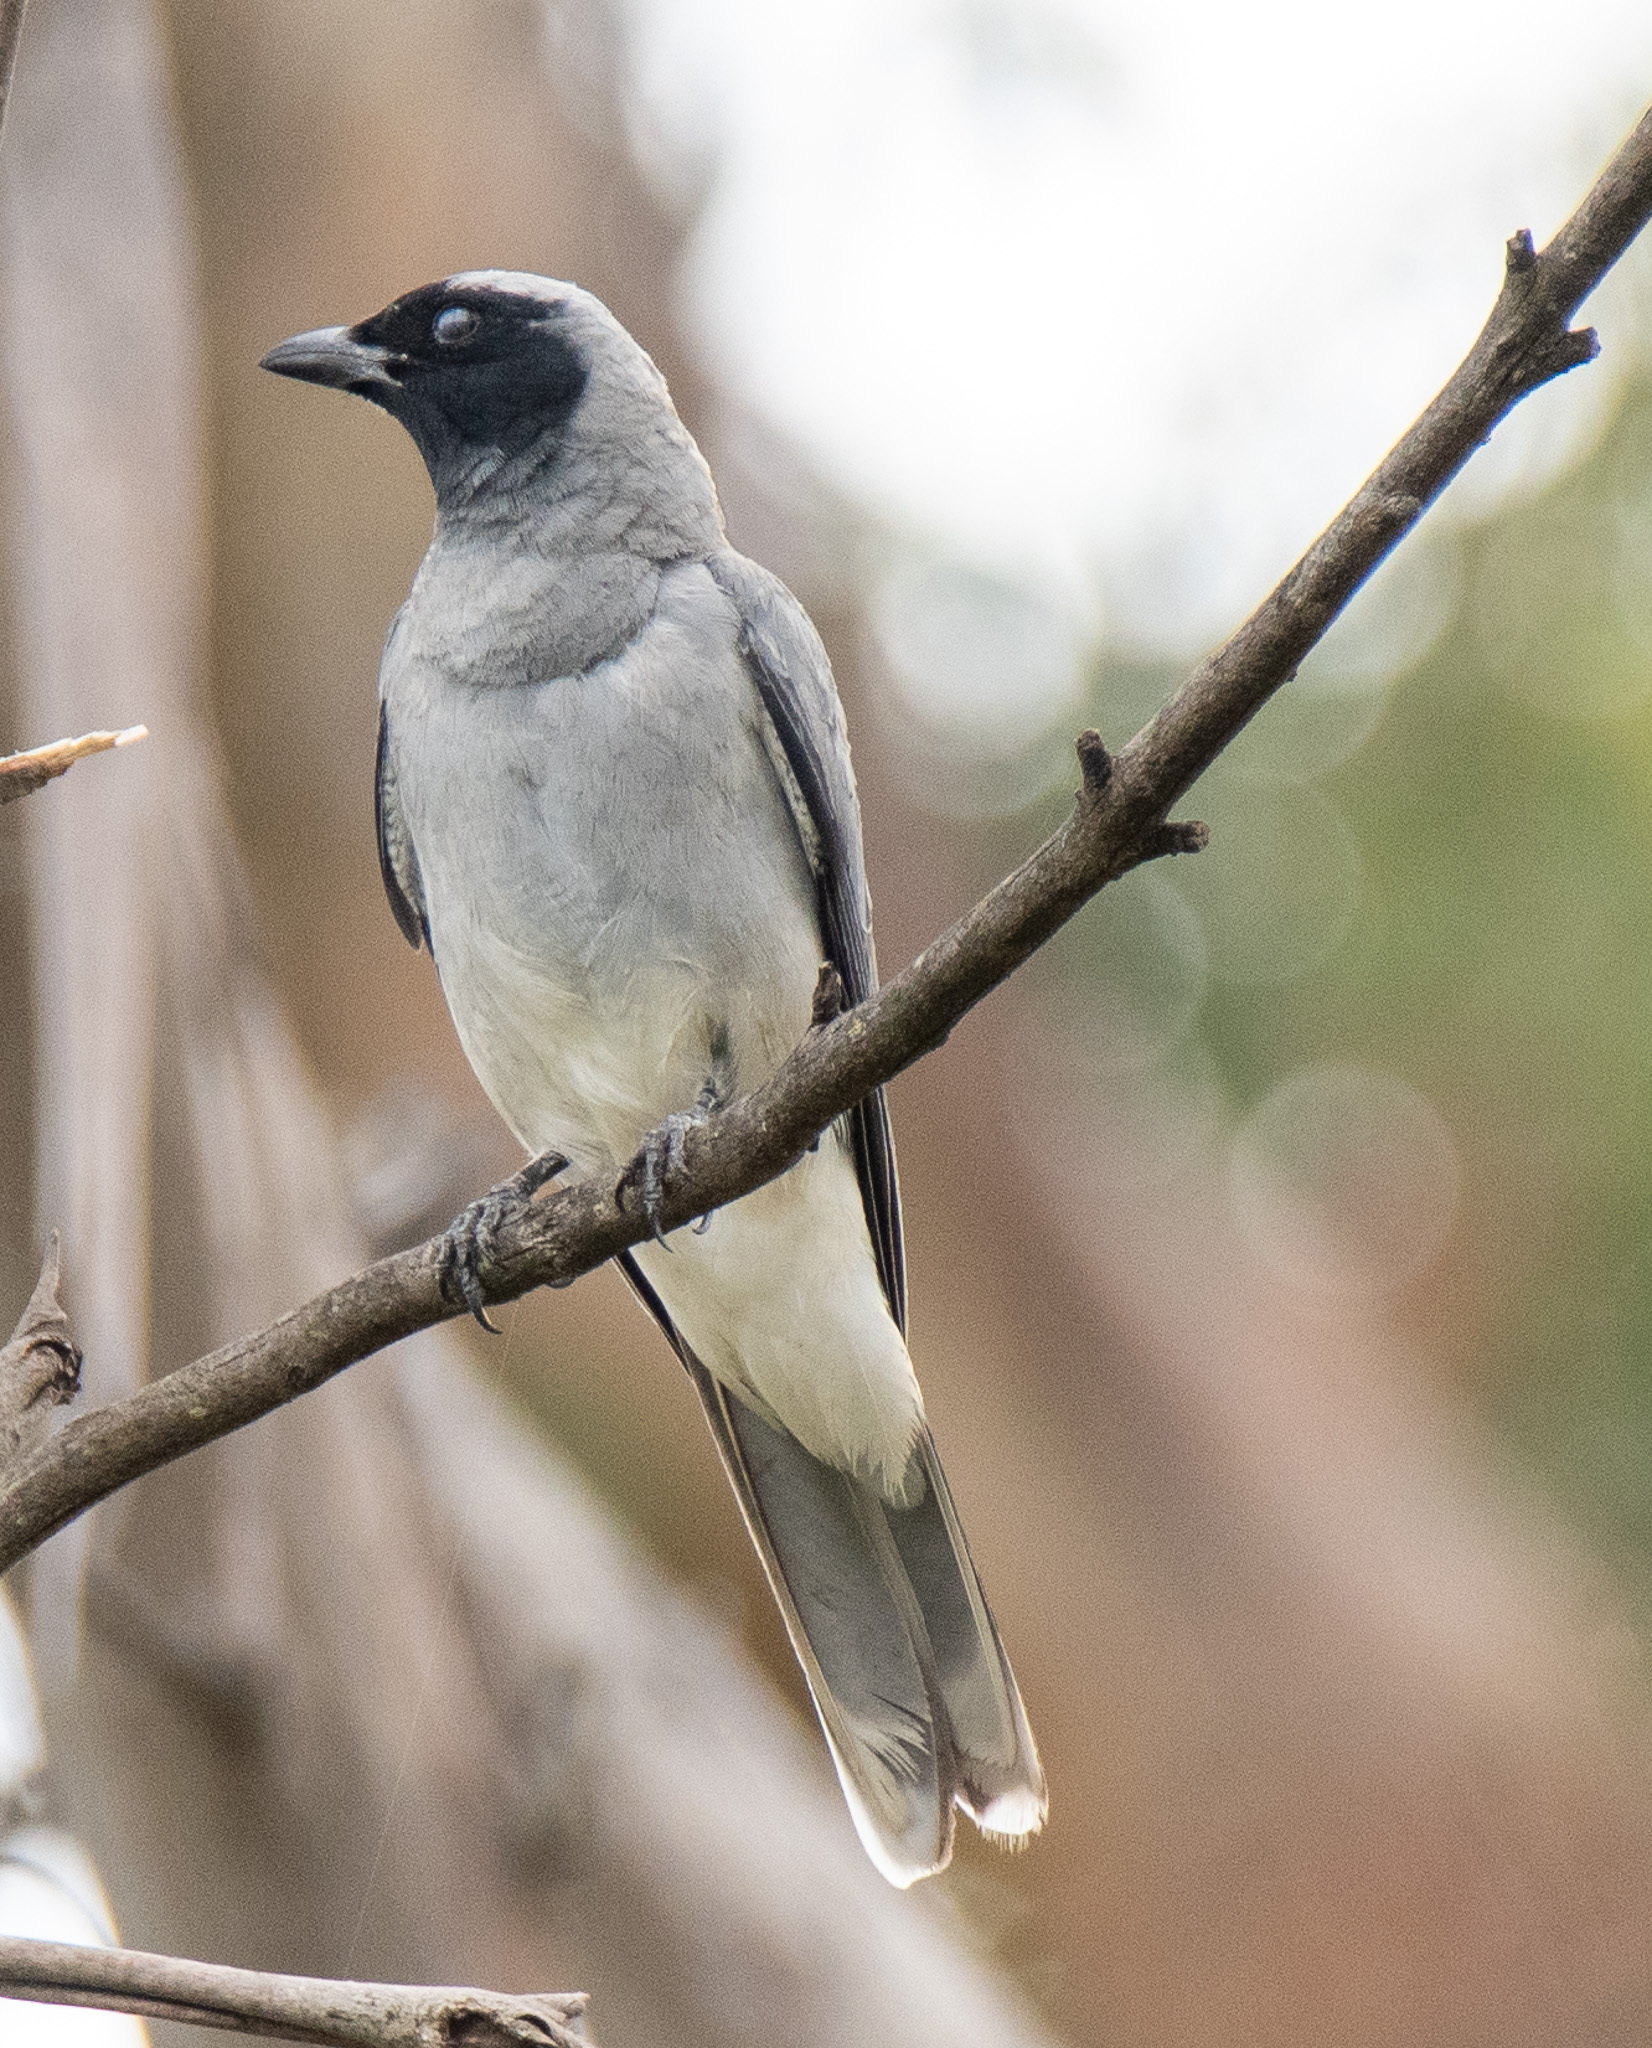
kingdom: Animalia
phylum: Chordata
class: Aves
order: Passeriformes
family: Campephagidae
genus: Coracina
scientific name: Coracina novaehollandiae
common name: Black-faced cuckooshrike
